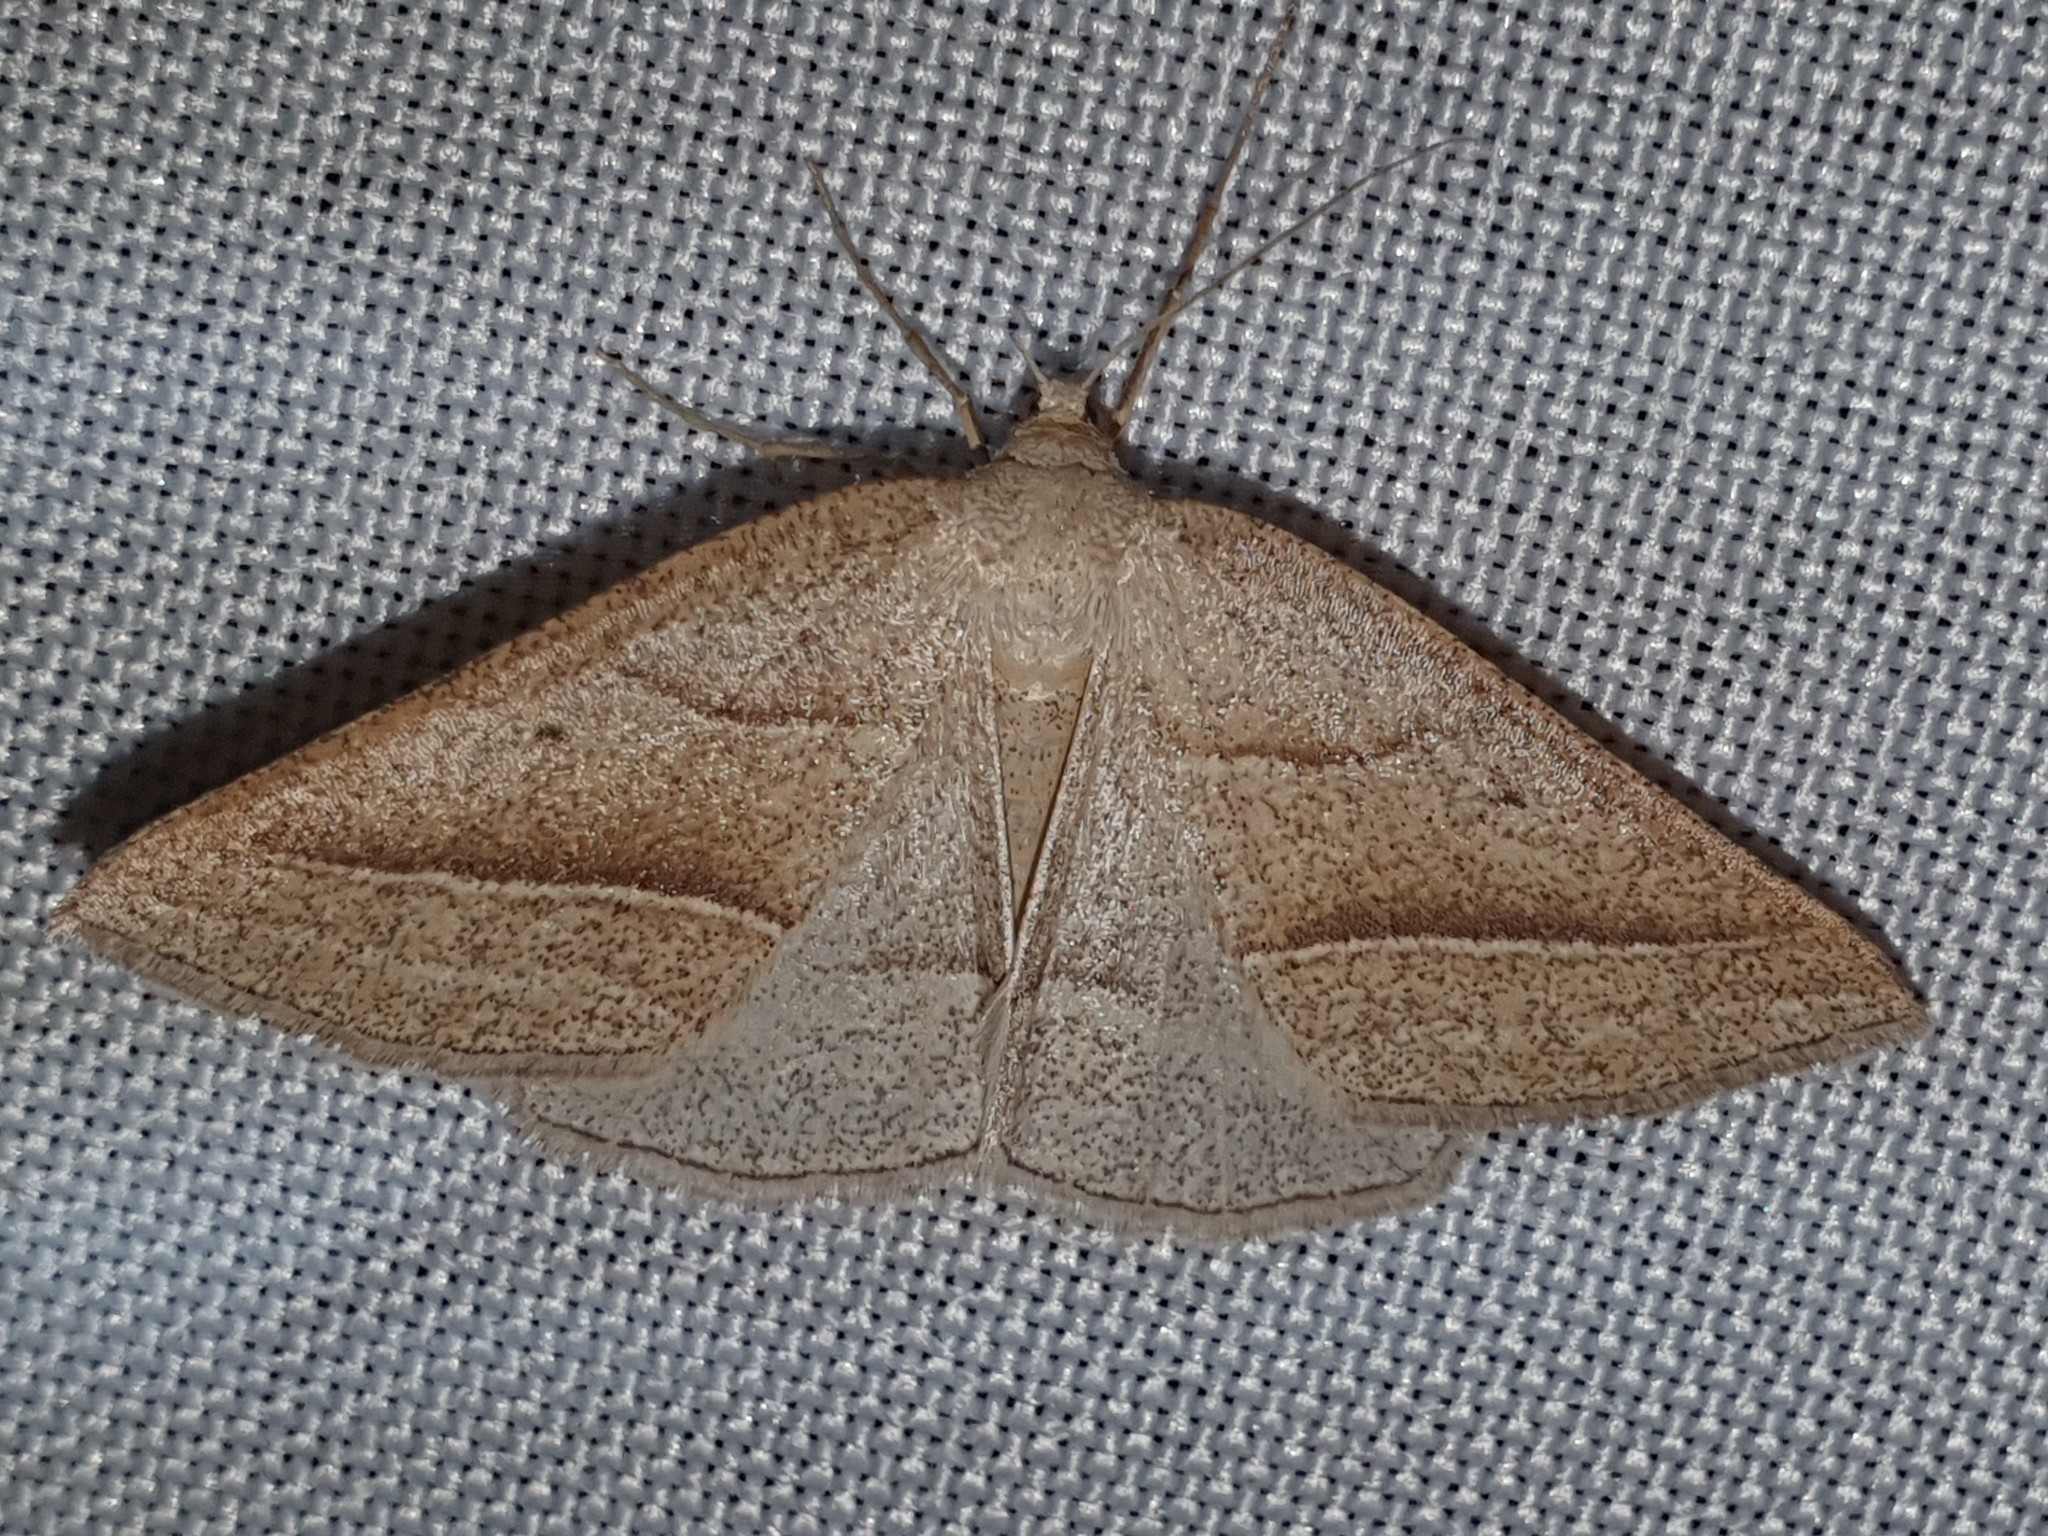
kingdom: Animalia
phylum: Arthropoda
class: Insecta
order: Lepidoptera
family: Pterophoridae
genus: Pterophorus
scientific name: Pterophorus Petrophora chlorosata
